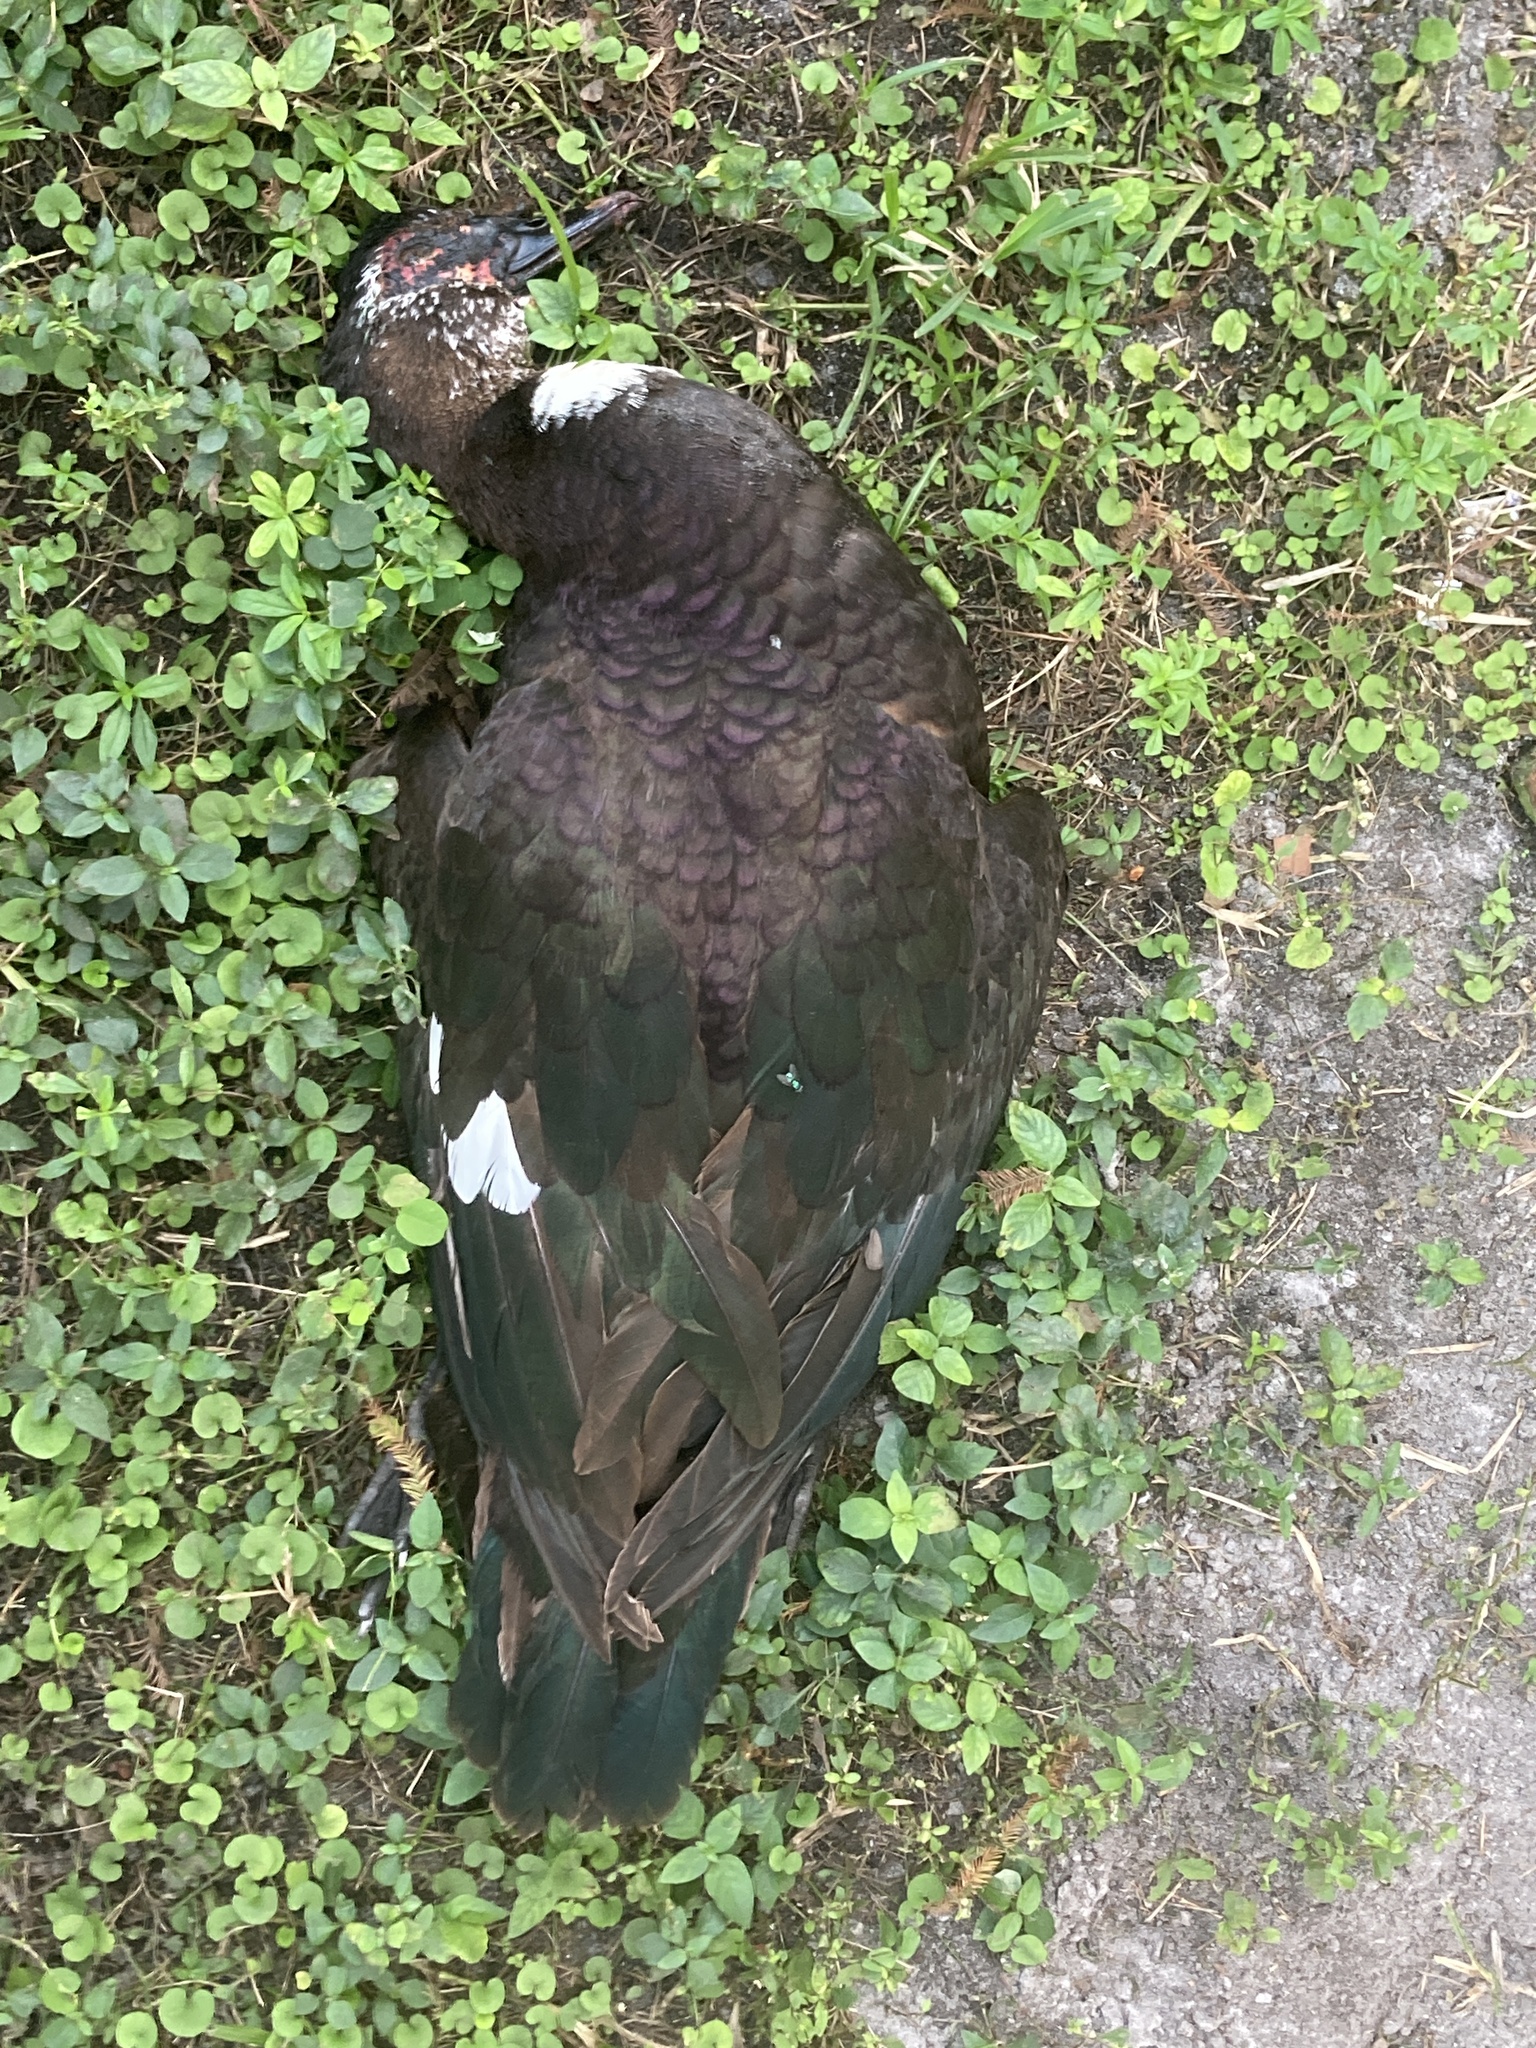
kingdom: Animalia
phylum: Chordata
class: Aves
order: Anseriformes
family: Anatidae
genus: Cairina
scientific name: Cairina moschata
